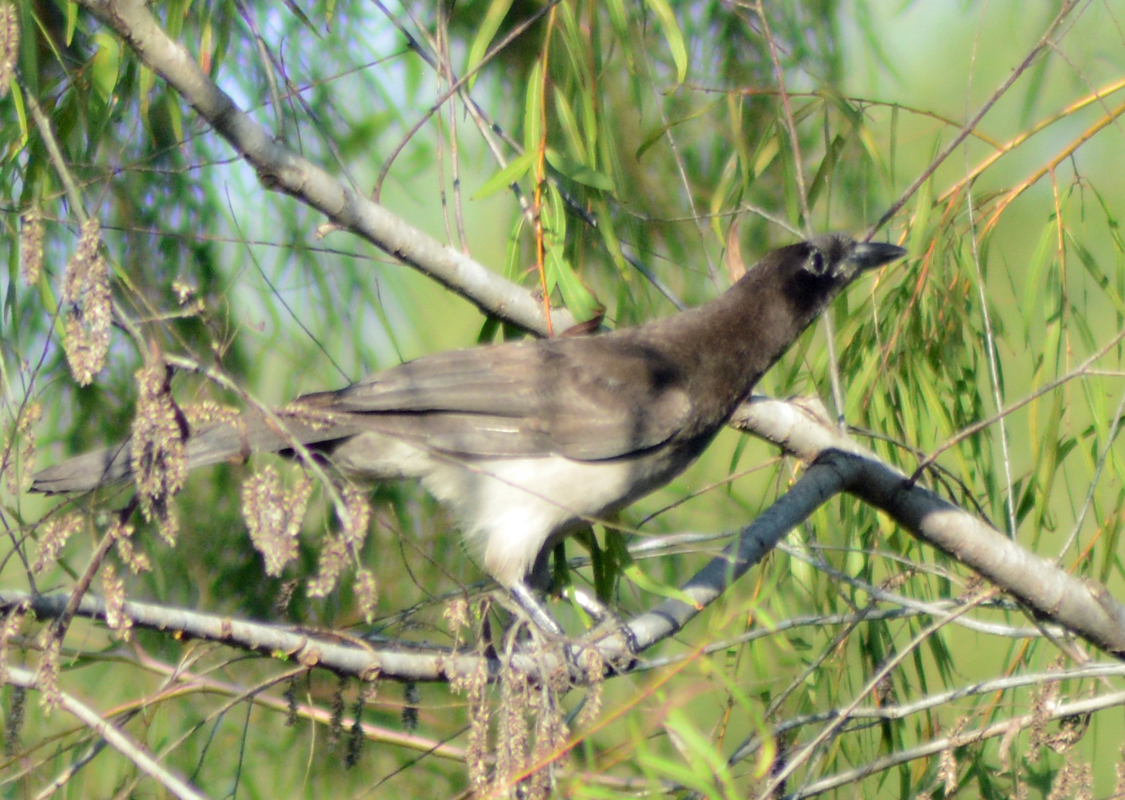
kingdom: Animalia
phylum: Chordata
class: Aves
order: Passeriformes
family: Corvidae
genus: Psilorhinus
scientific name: Psilorhinus morio
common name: Brown jay
